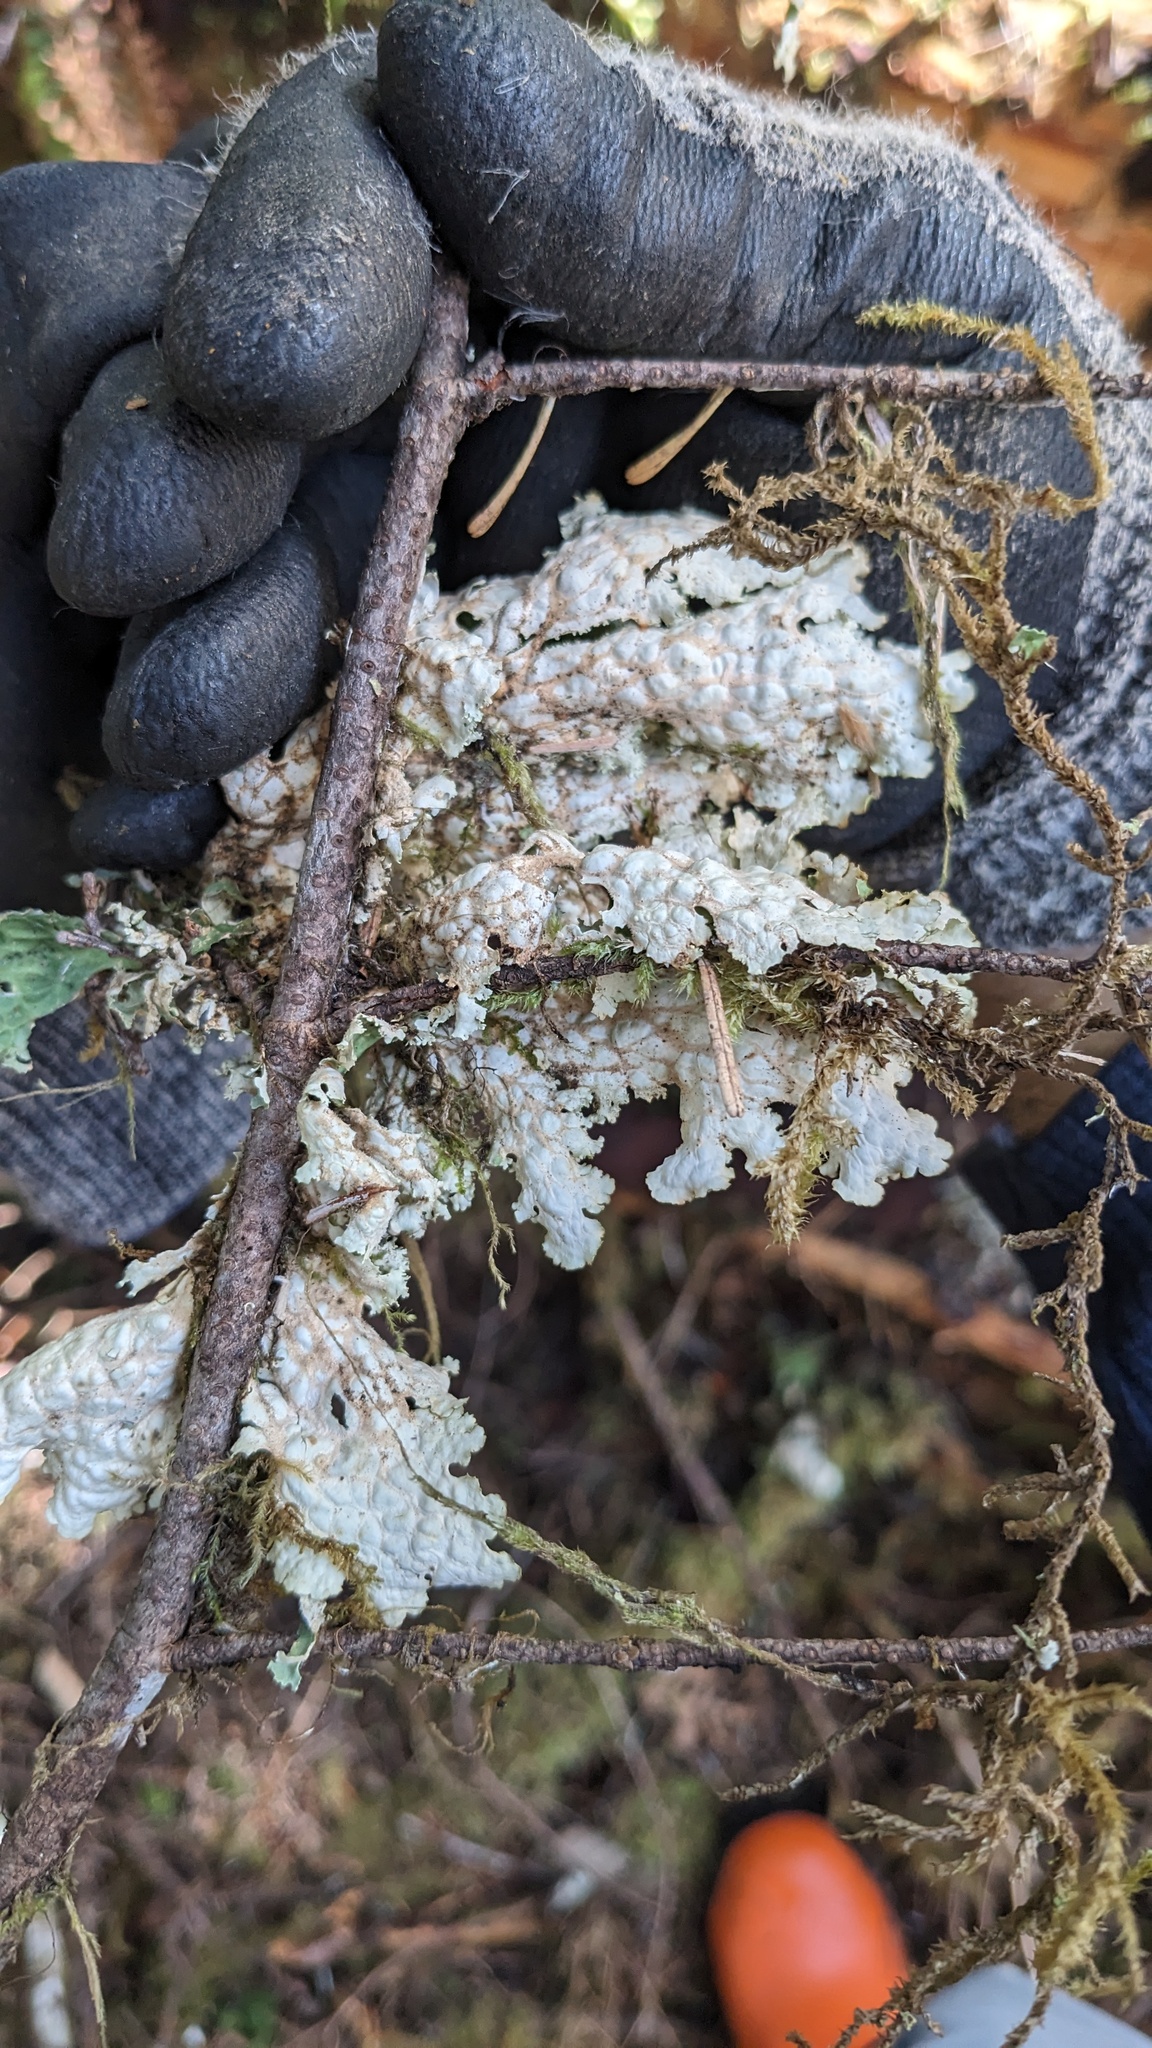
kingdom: Fungi
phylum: Ascomycota
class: Lecanoromycetes
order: Peltigerales
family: Lobariaceae
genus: Lobaria
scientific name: Lobaria oregana
